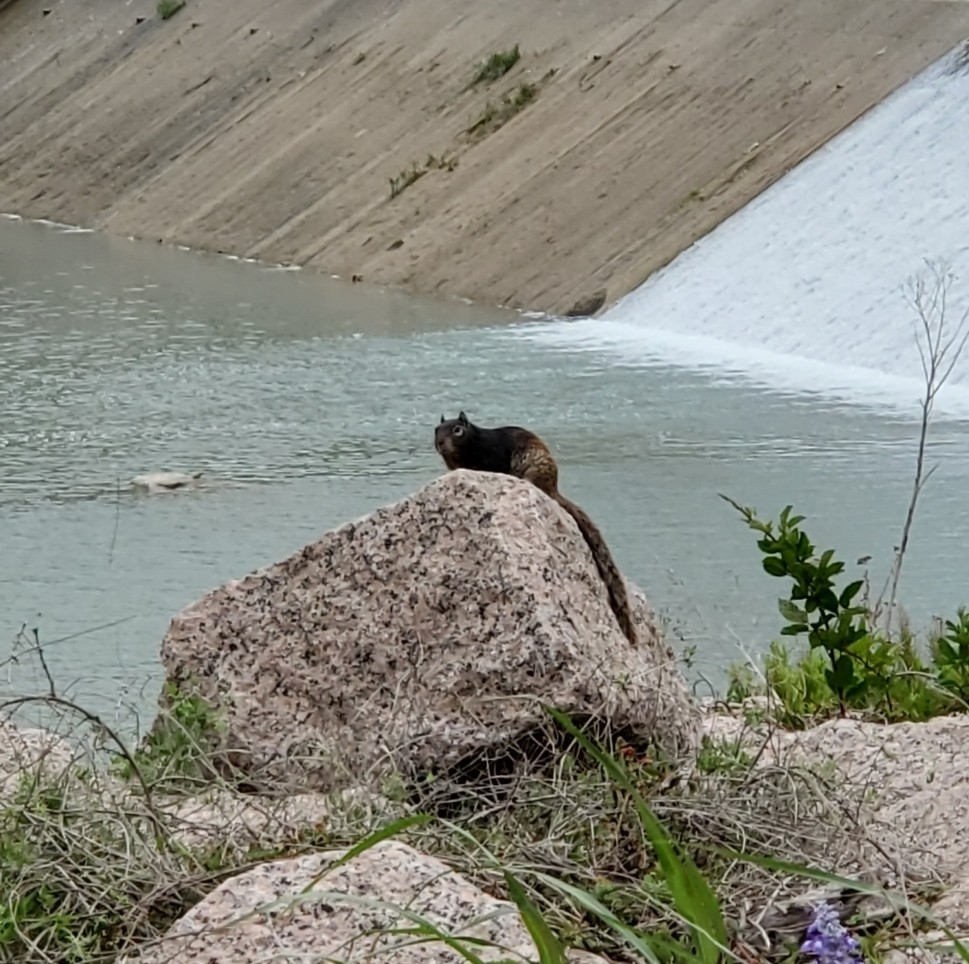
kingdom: Animalia
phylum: Chordata
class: Mammalia
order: Rodentia
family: Sciuridae
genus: Otospermophilus
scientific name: Otospermophilus variegatus
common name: Rock squirrel
